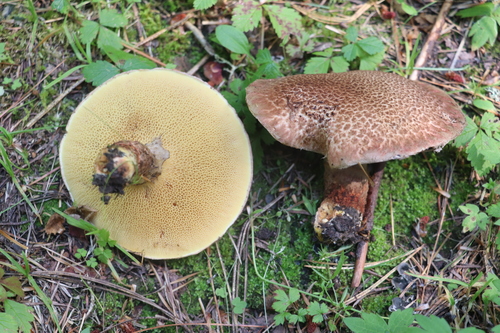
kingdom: Fungi
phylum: Basidiomycota
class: Agaricomycetes
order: Boletales
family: Suillaceae
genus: Suillus
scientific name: Suillus spraguei
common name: Painted suillus
